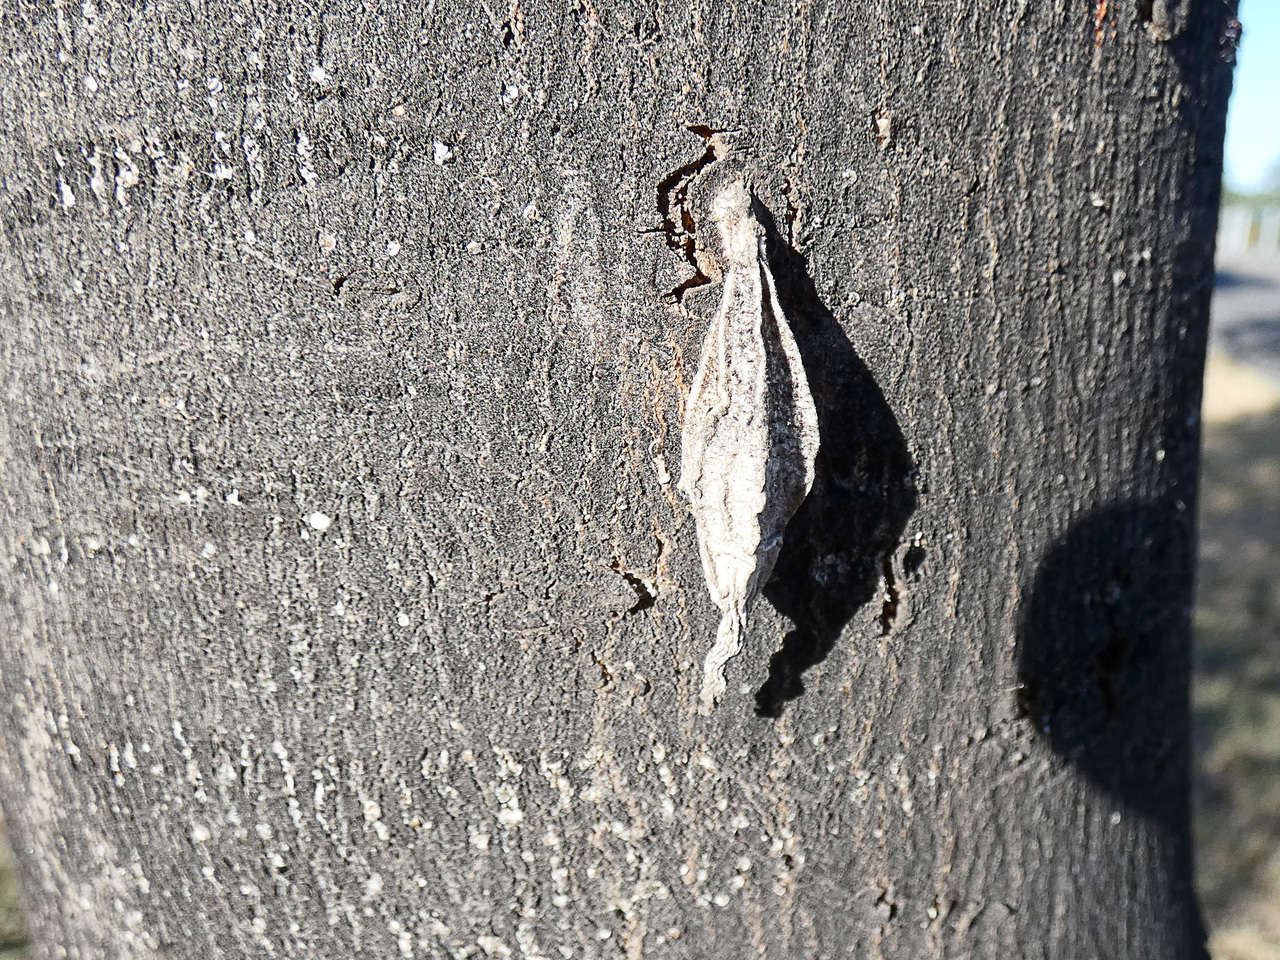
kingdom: Animalia
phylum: Arthropoda
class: Insecta
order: Lepidoptera
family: Psychidae
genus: Hyalarcta
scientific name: Hyalarcta nigrescens
